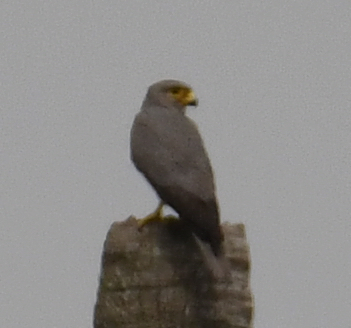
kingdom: Animalia
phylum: Chordata
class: Aves
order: Falconiformes
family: Falconidae
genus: Falco
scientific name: Falco ardosiaceus
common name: Grey kestrel
